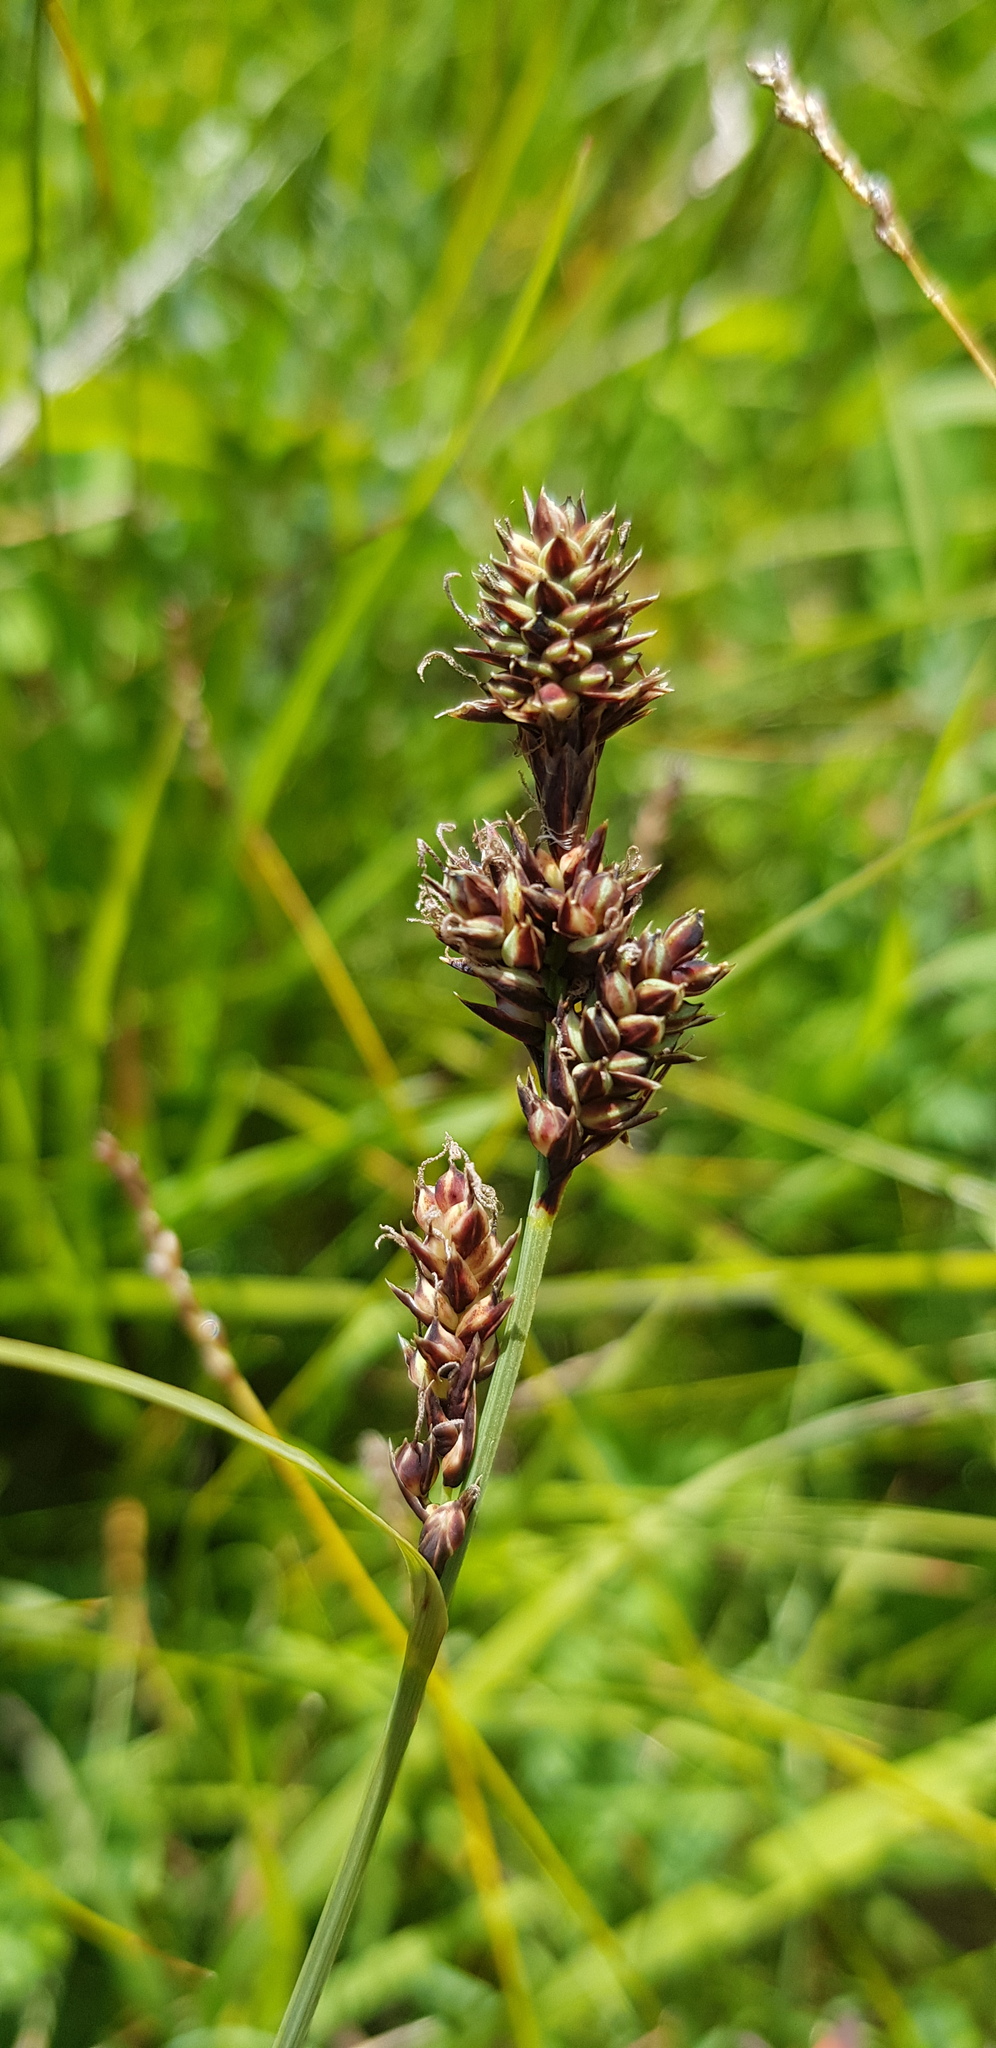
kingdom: Plantae
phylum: Tracheophyta
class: Liliopsida
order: Poales
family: Cyperaceae
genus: Carex
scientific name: Carex media
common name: Alpine sedge
